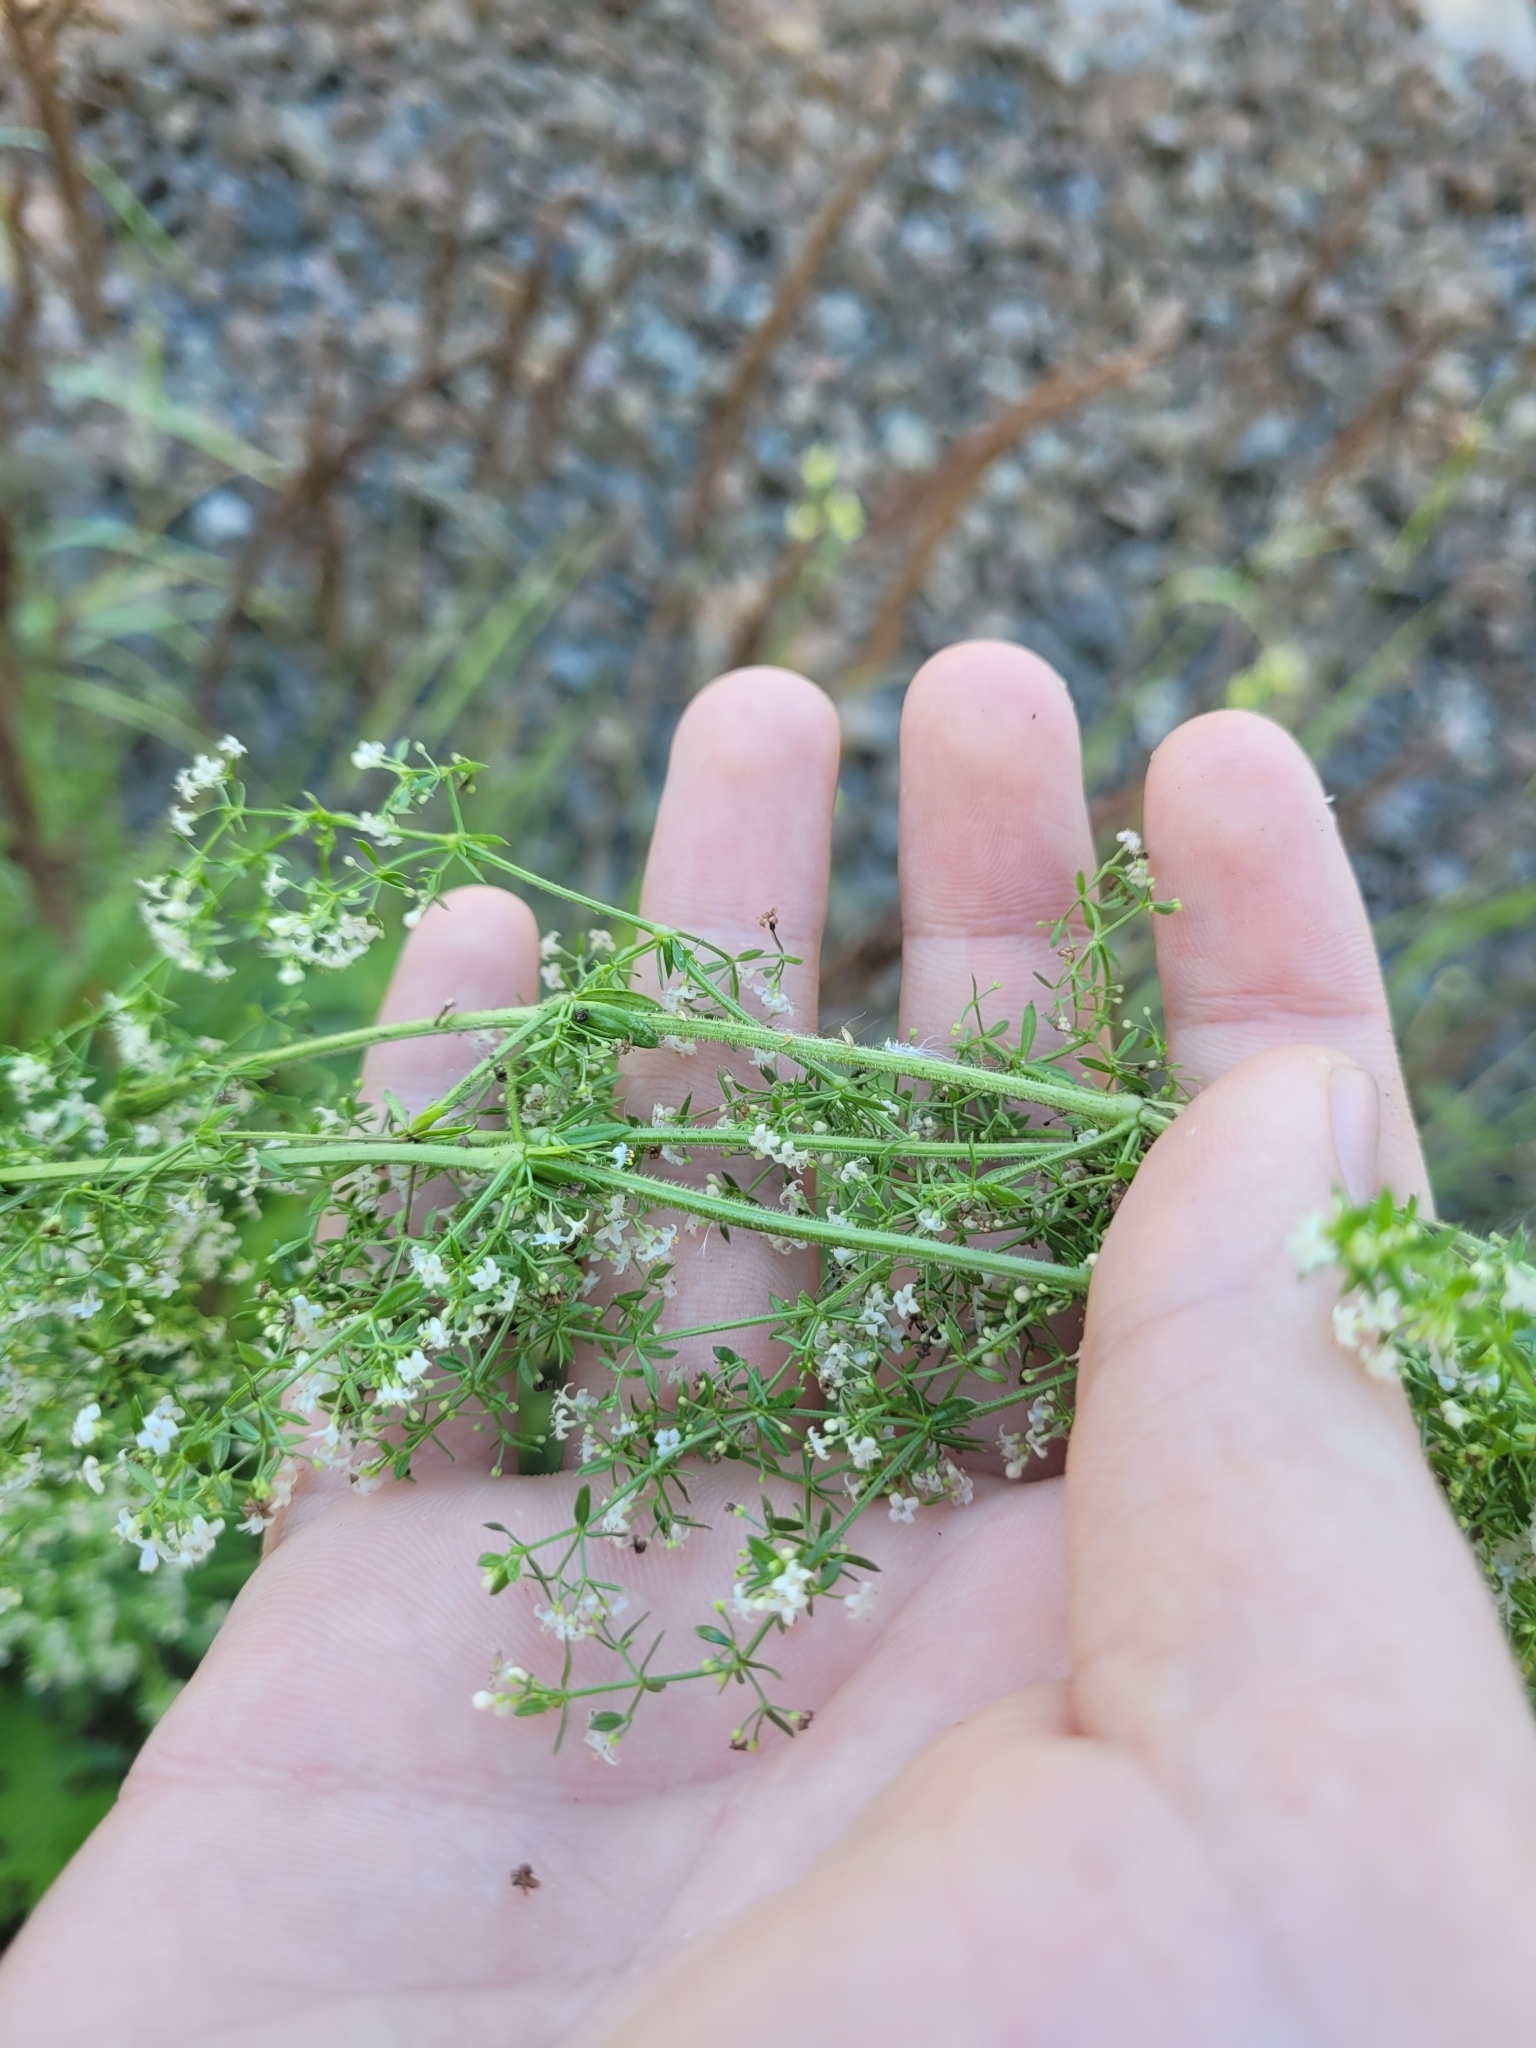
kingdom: Plantae
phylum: Tracheophyta
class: Magnoliopsida
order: Gentianales
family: Rubiaceae
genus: Galium
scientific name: Galium humifusum
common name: Spreading bedstraw
